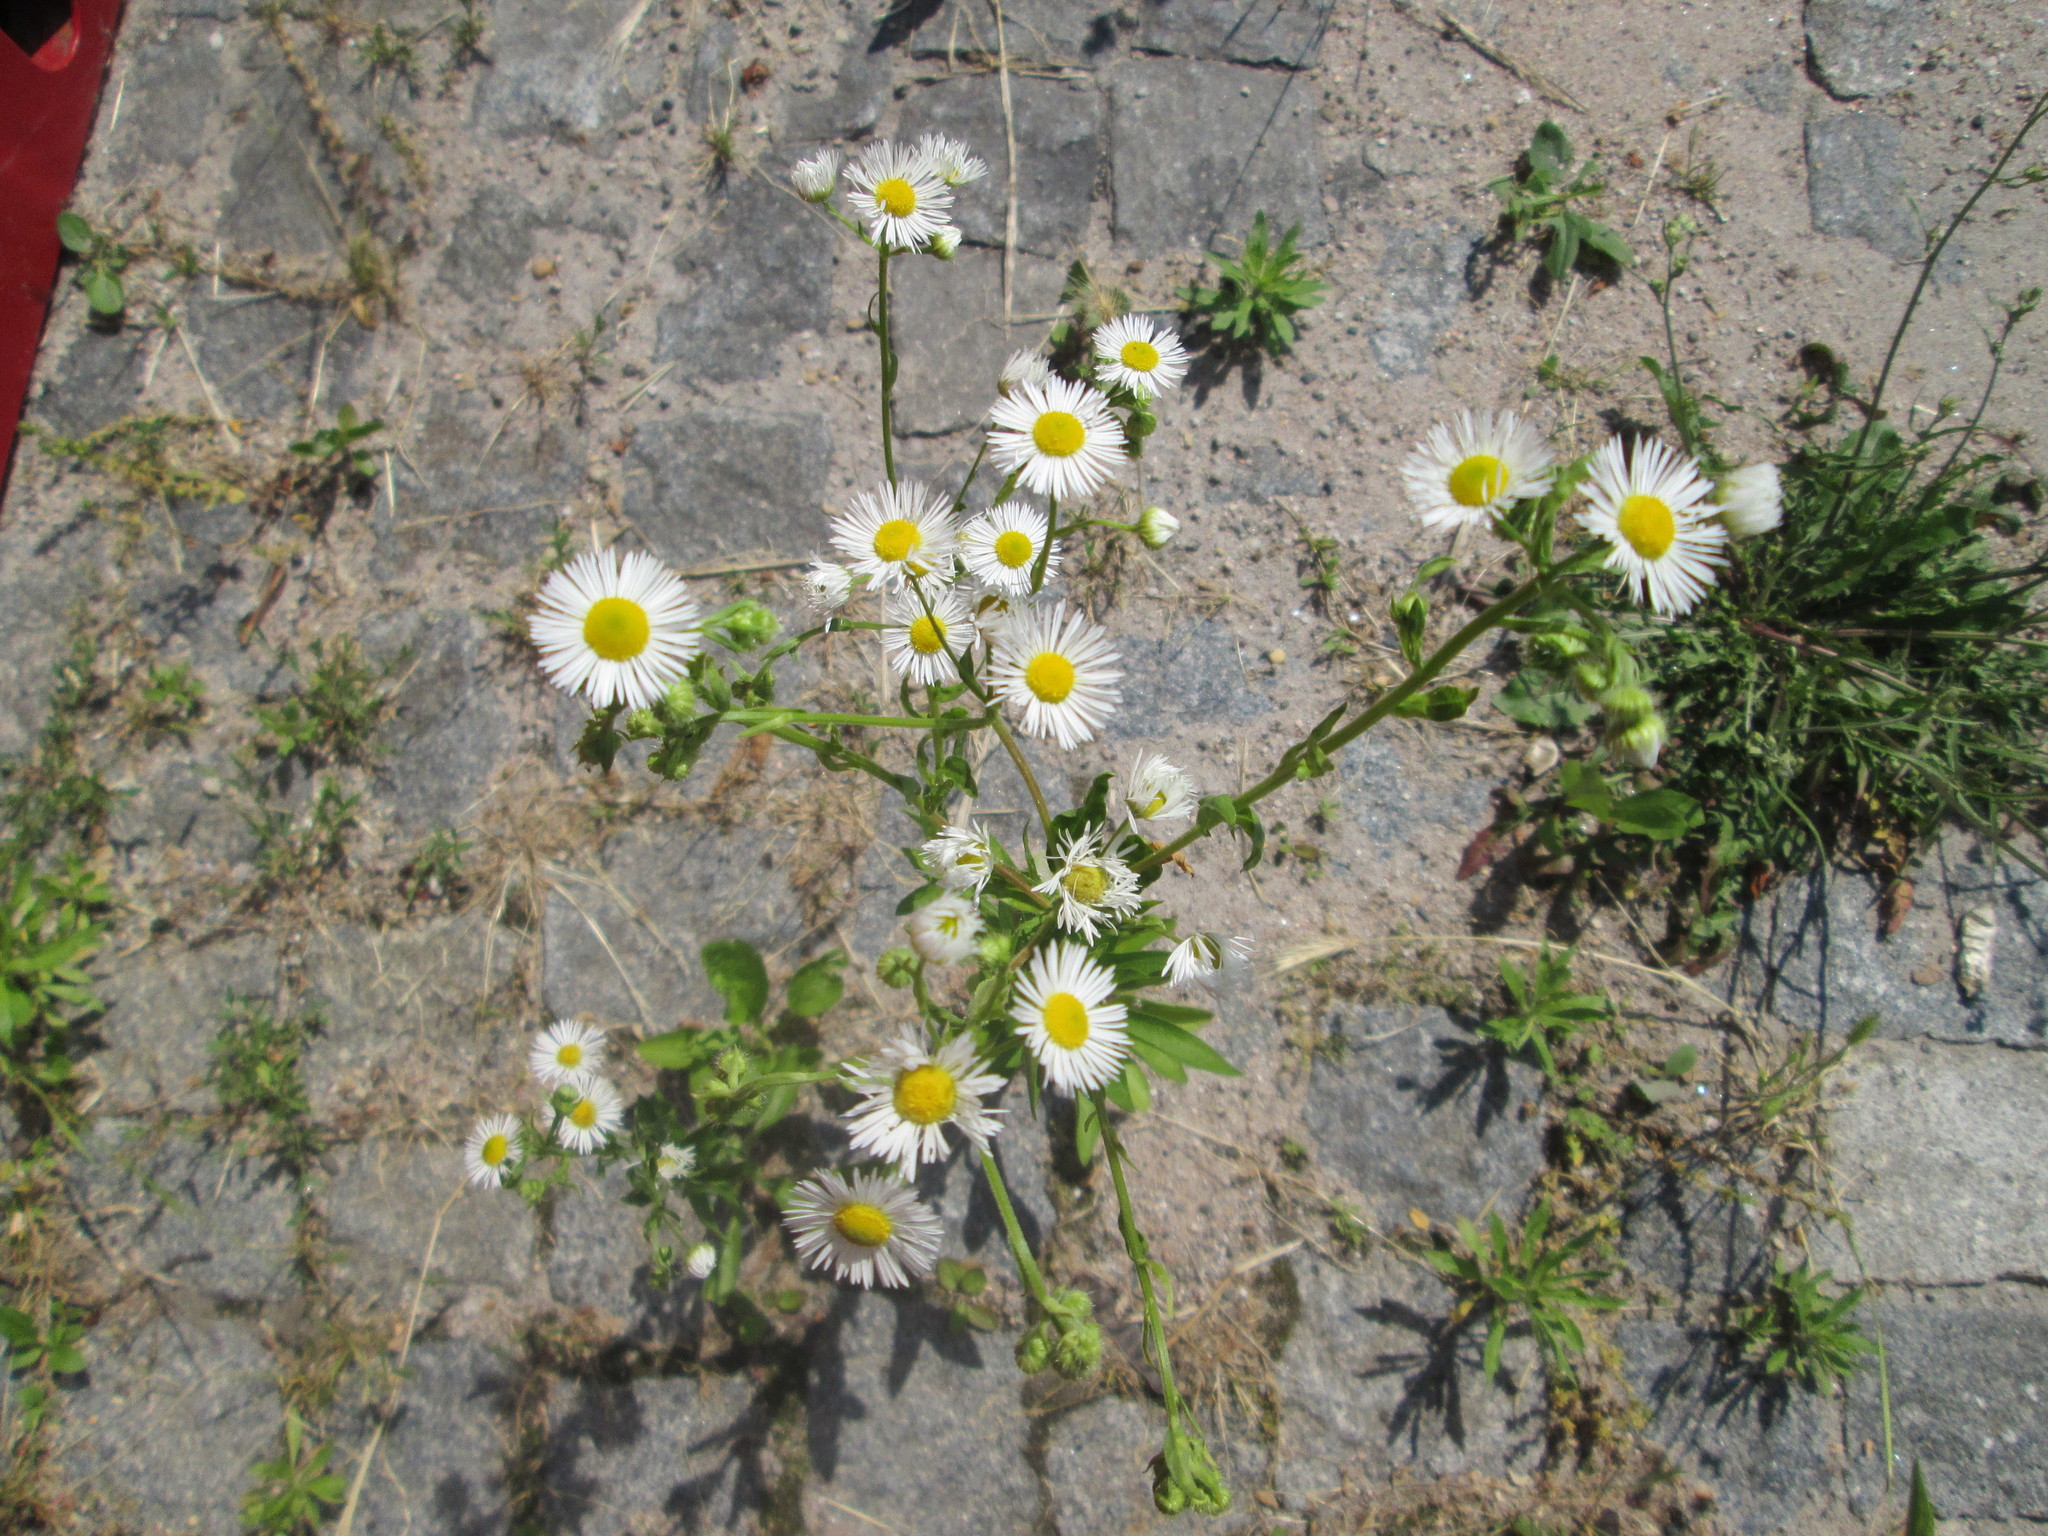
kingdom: Plantae
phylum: Tracheophyta
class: Magnoliopsida
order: Asterales
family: Asteraceae
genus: Erigeron
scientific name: Erigeron annuus
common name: Tall fleabane
